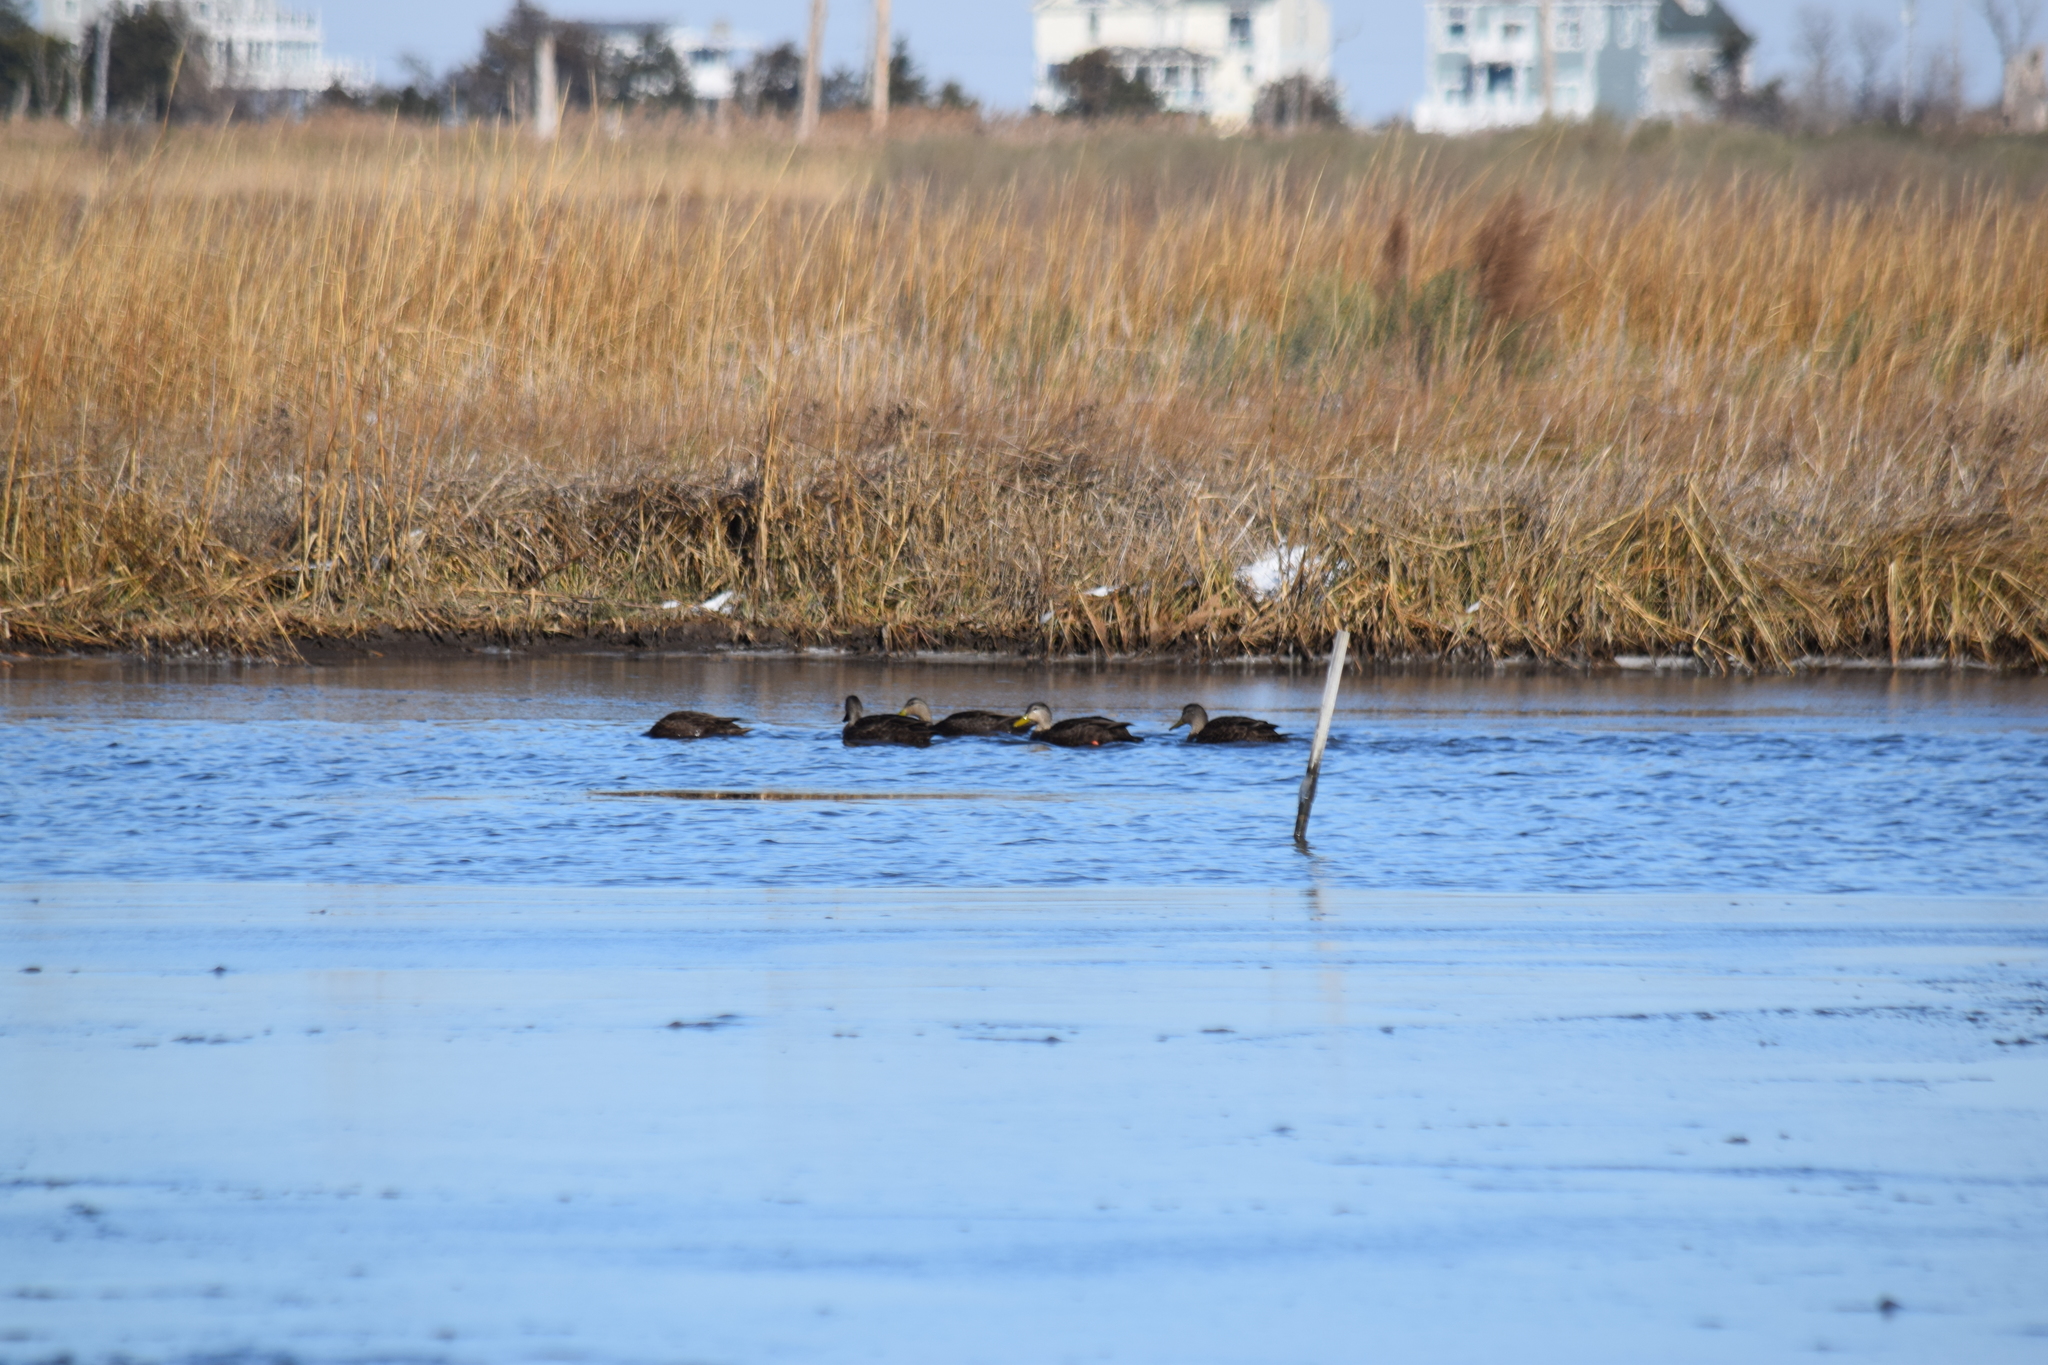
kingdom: Animalia
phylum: Chordata
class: Aves
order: Anseriformes
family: Anatidae
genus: Anas
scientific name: Anas rubripes
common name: American black duck
